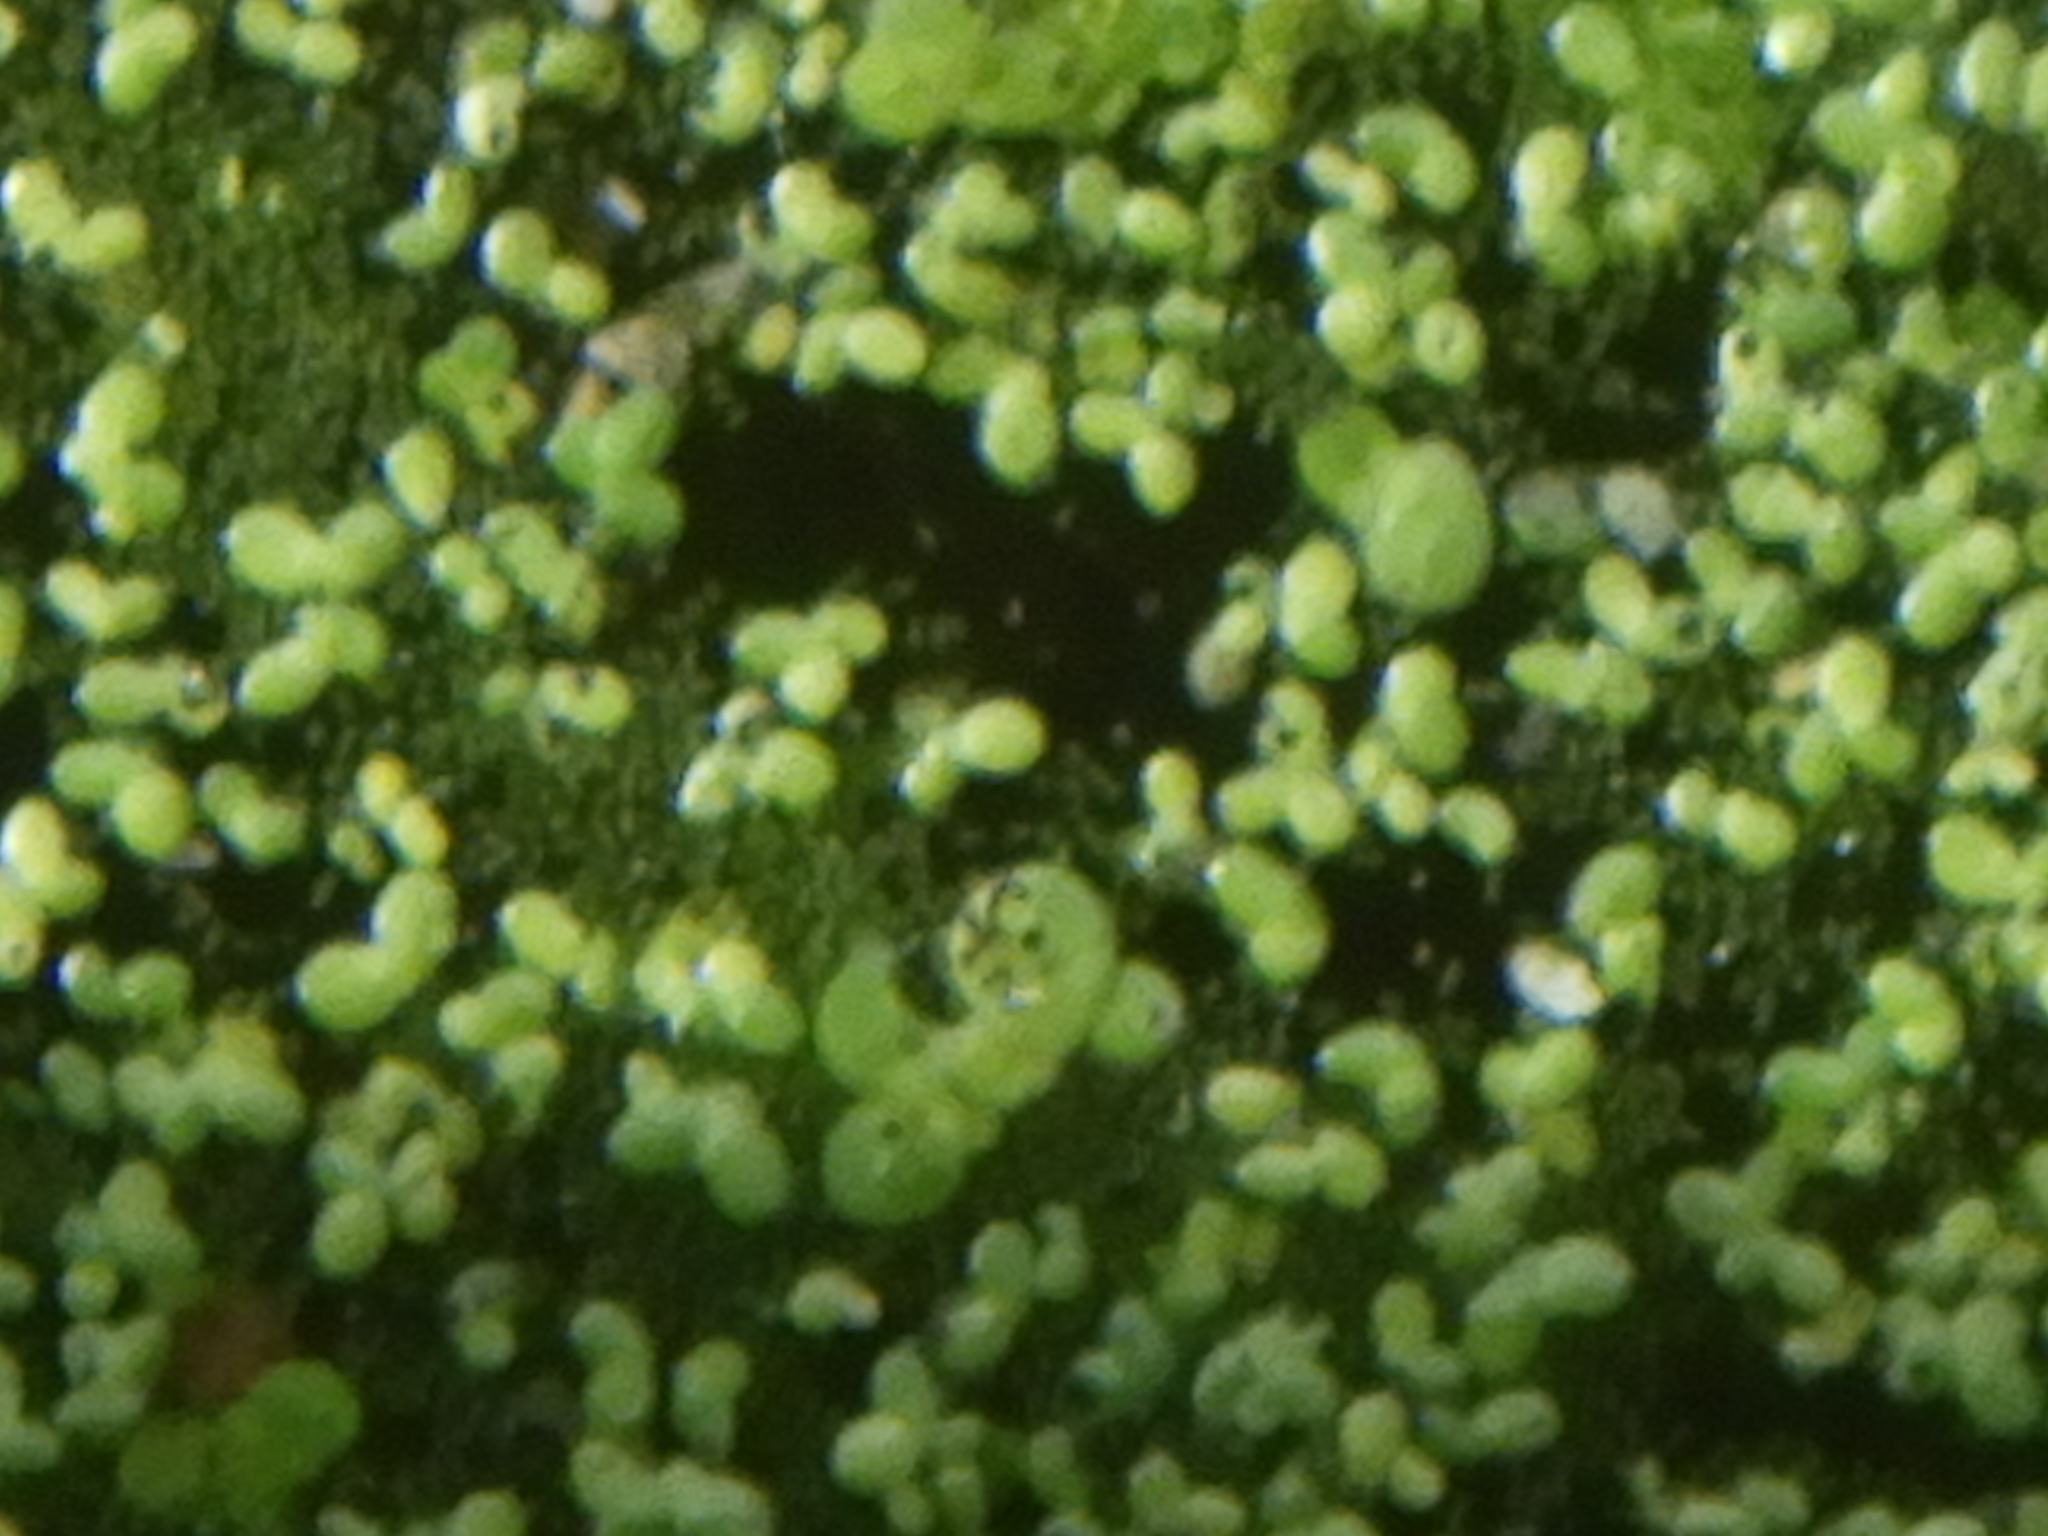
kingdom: Plantae
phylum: Tracheophyta
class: Liliopsida
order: Alismatales
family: Araceae
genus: Lemna
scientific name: Lemna minor
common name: Common duckweed
